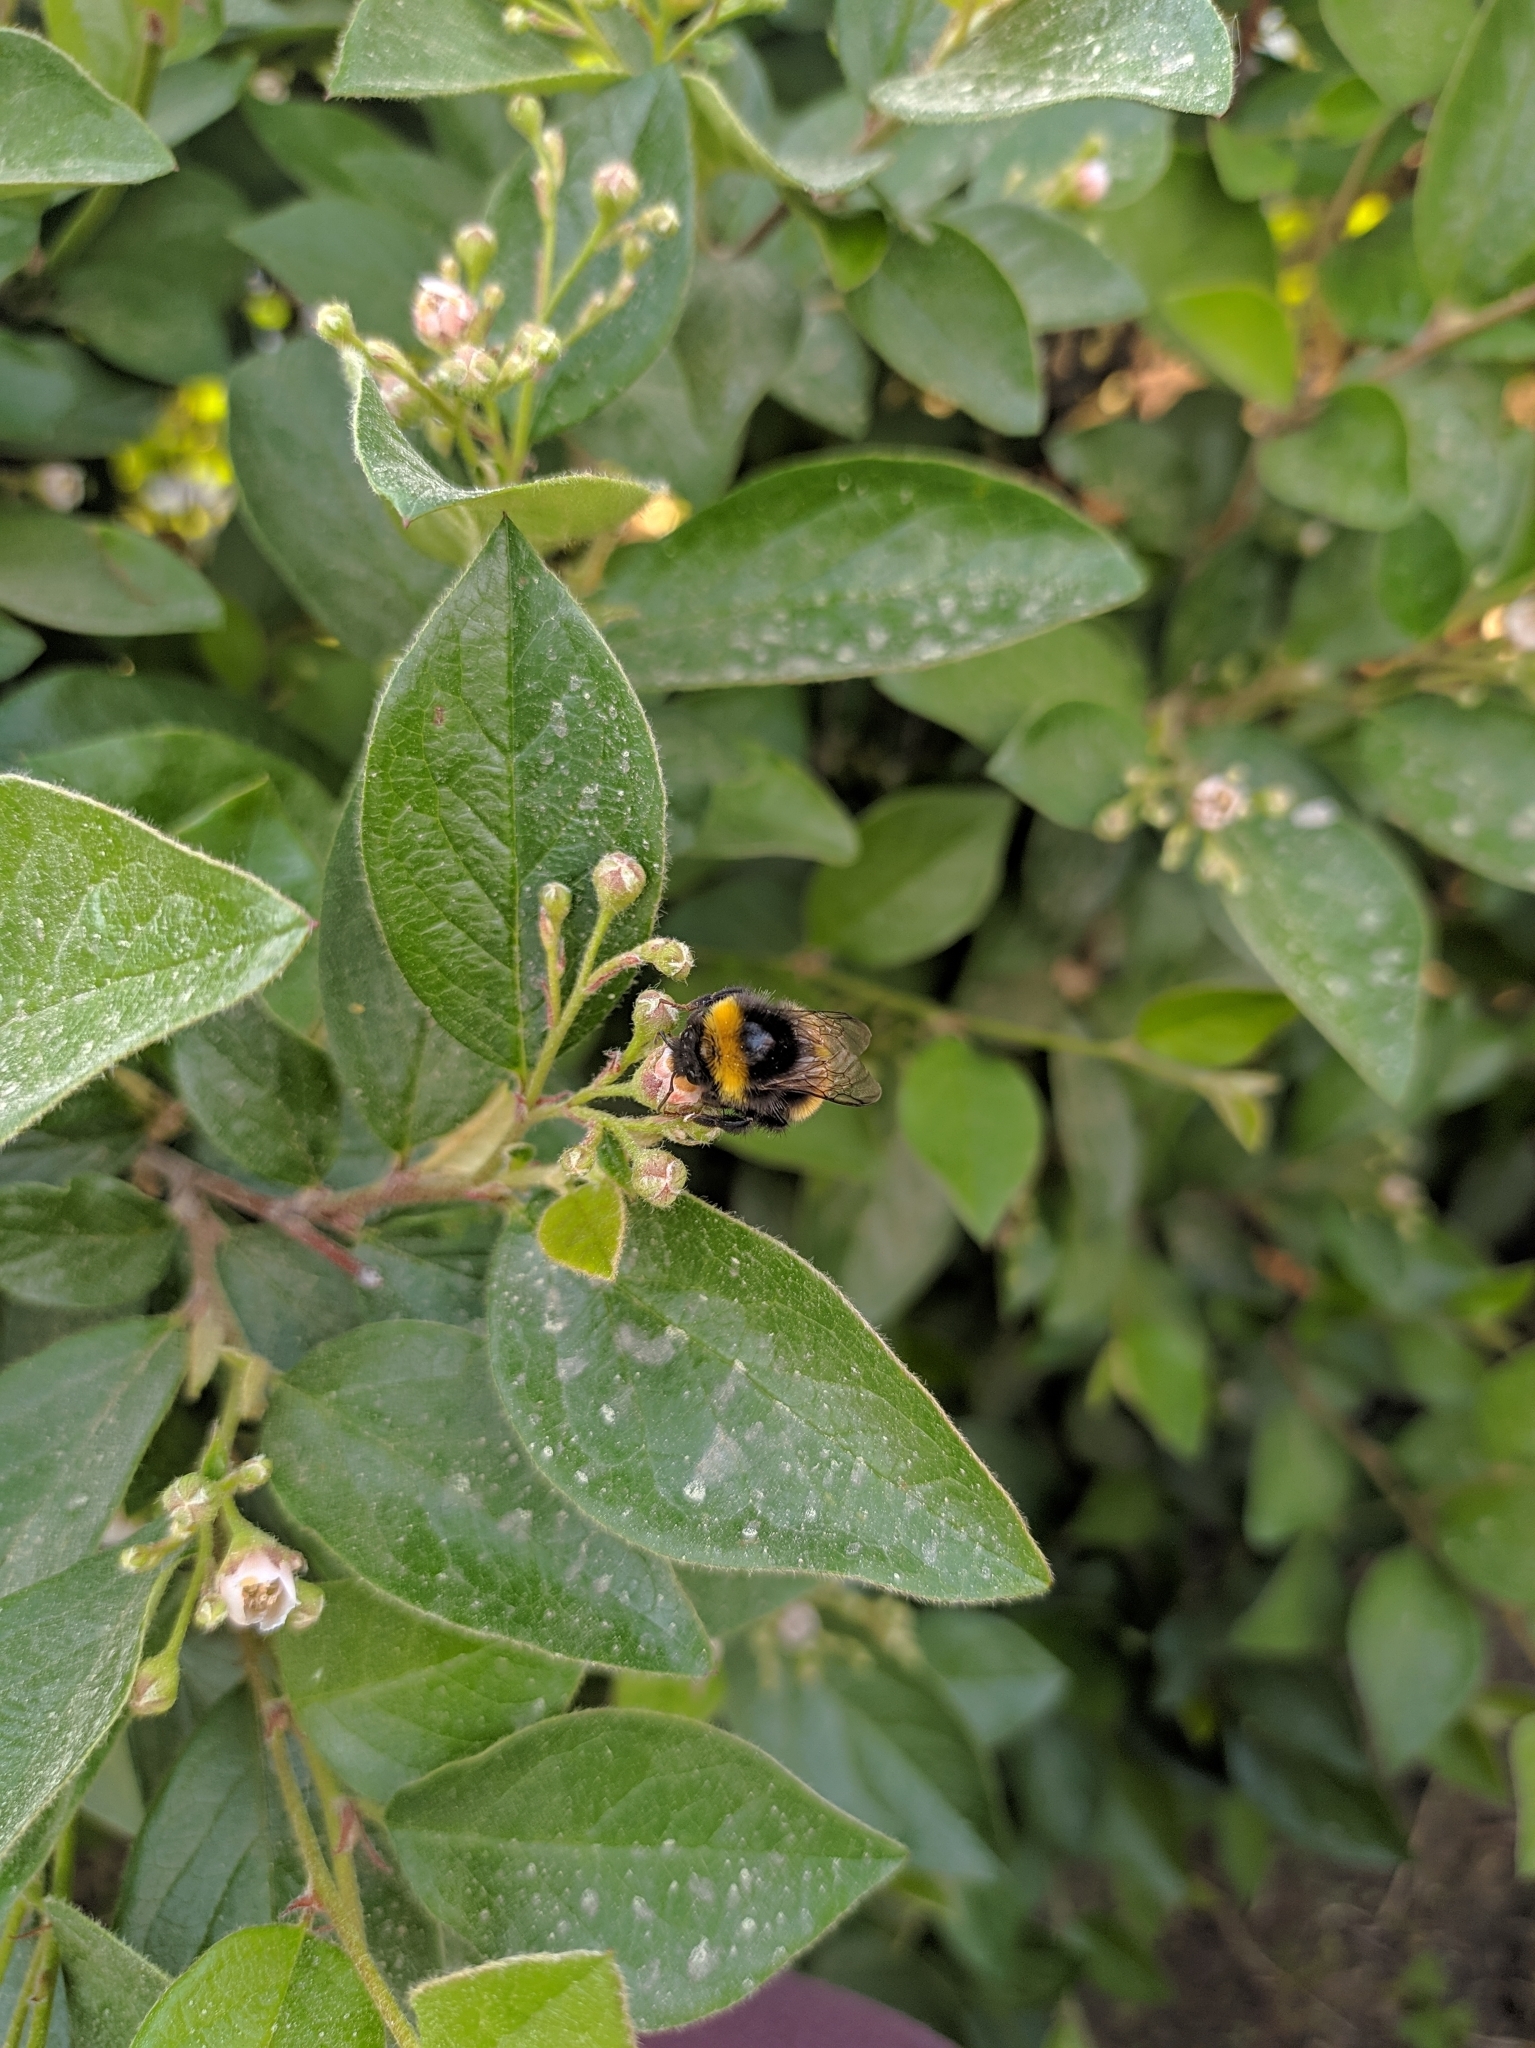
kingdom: Animalia
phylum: Arthropoda
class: Insecta
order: Hymenoptera
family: Apidae
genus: Bombus
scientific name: Bombus
